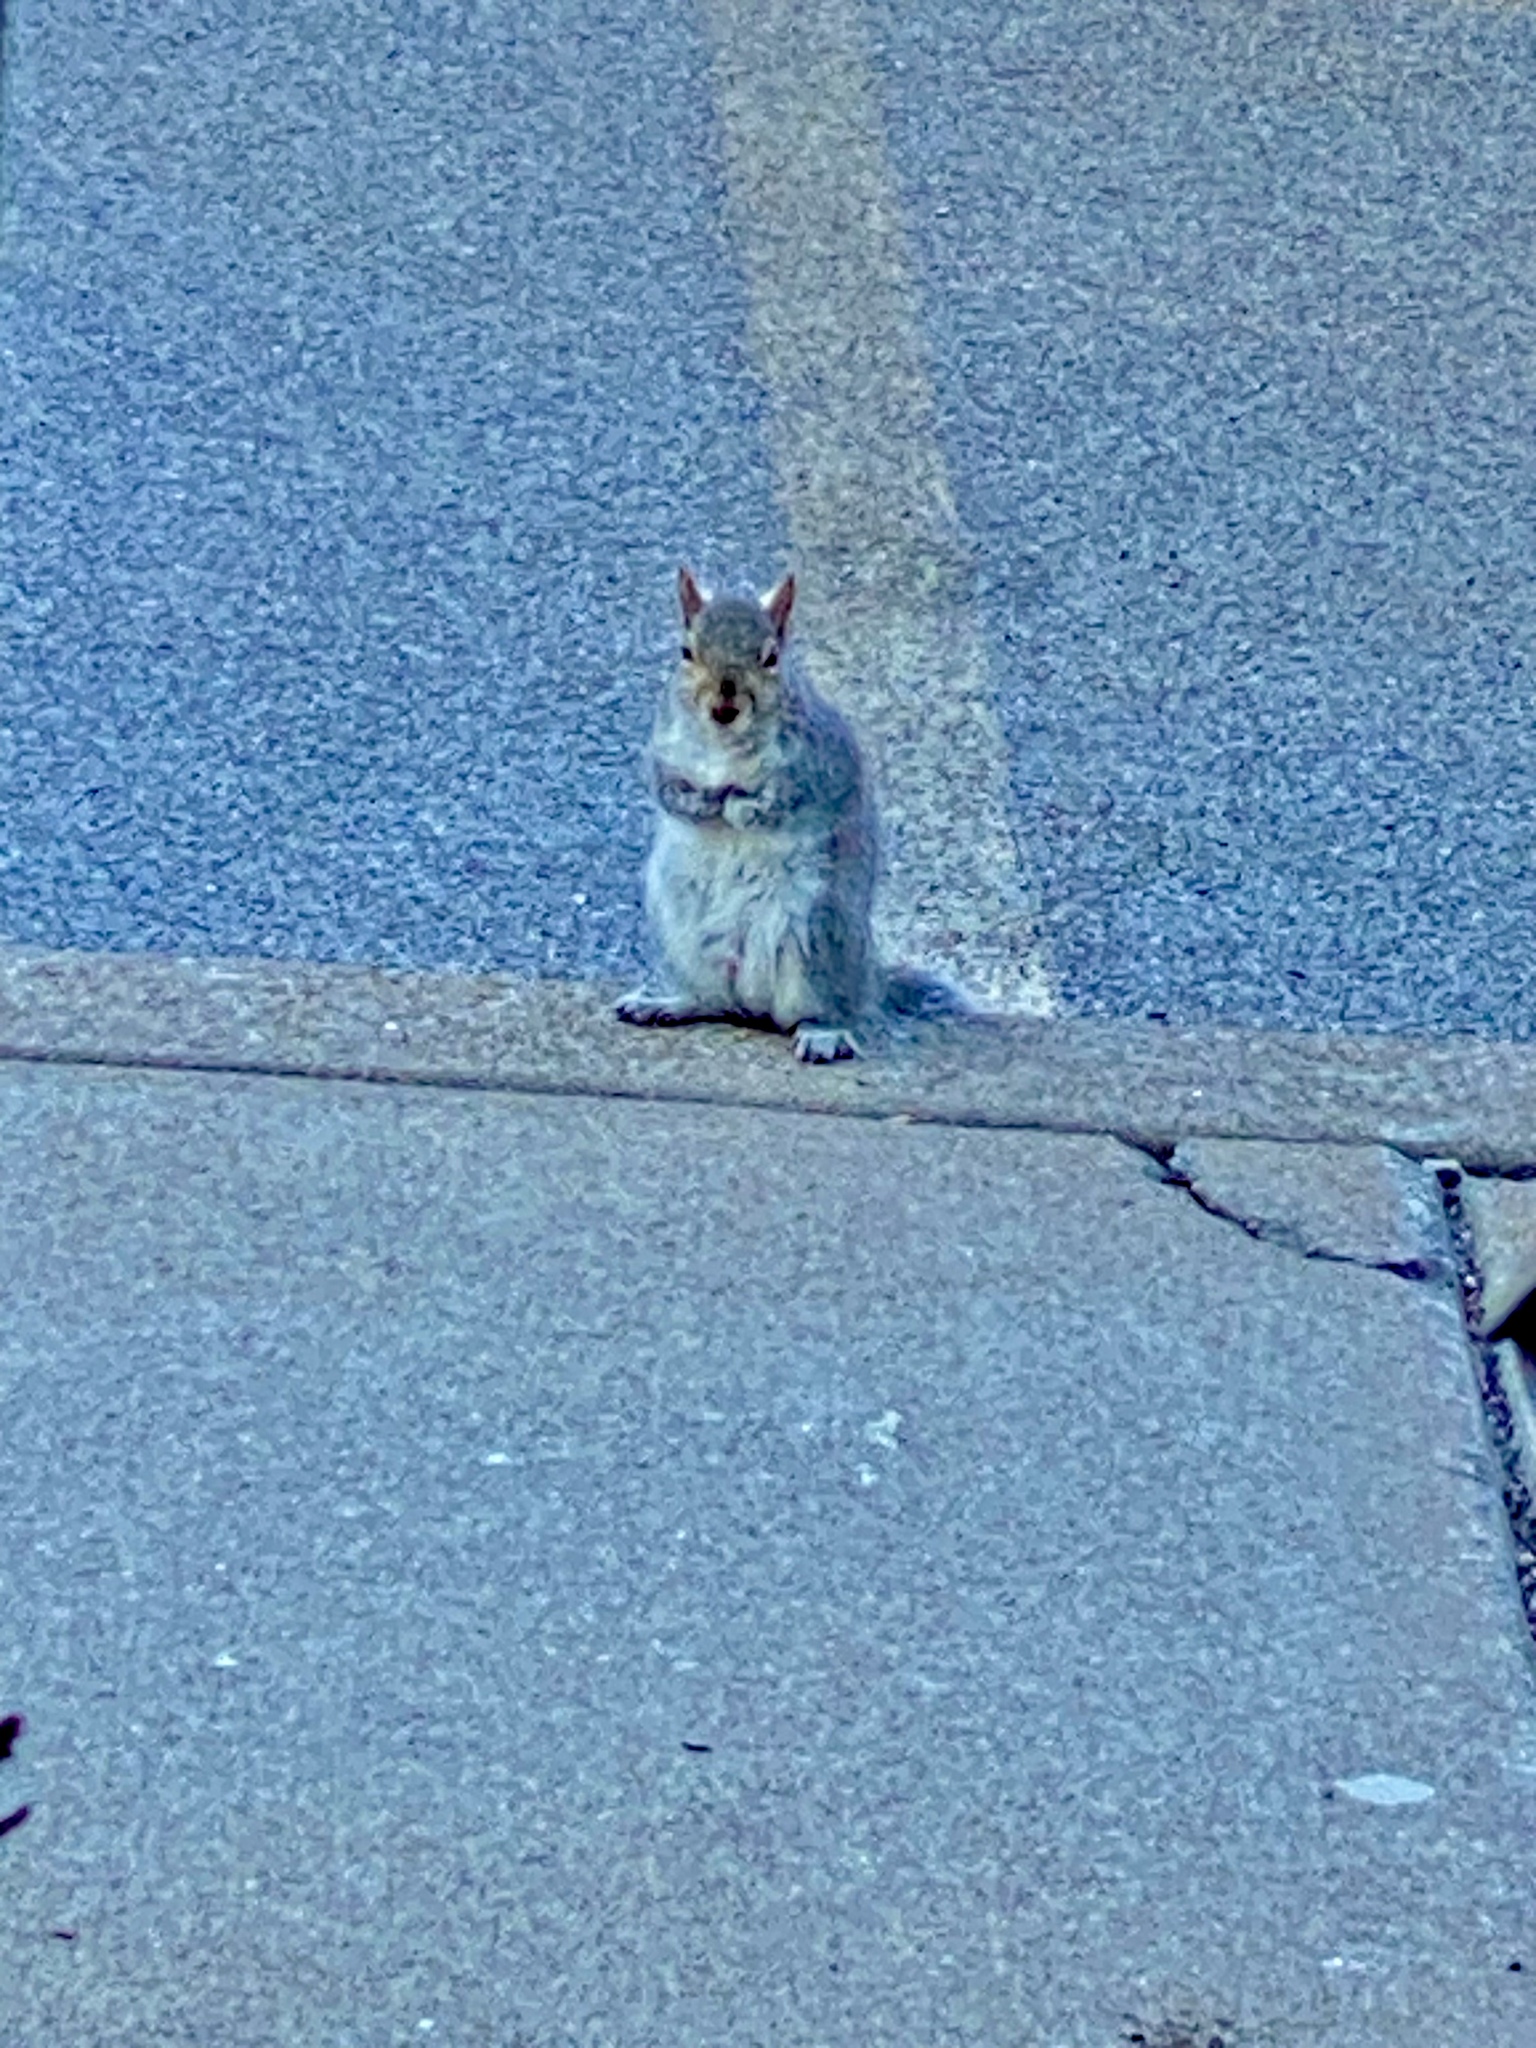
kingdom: Animalia
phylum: Chordata
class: Mammalia
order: Rodentia
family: Sciuridae
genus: Sciurus
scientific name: Sciurus carolinensis
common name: Eastern gray squirrel
